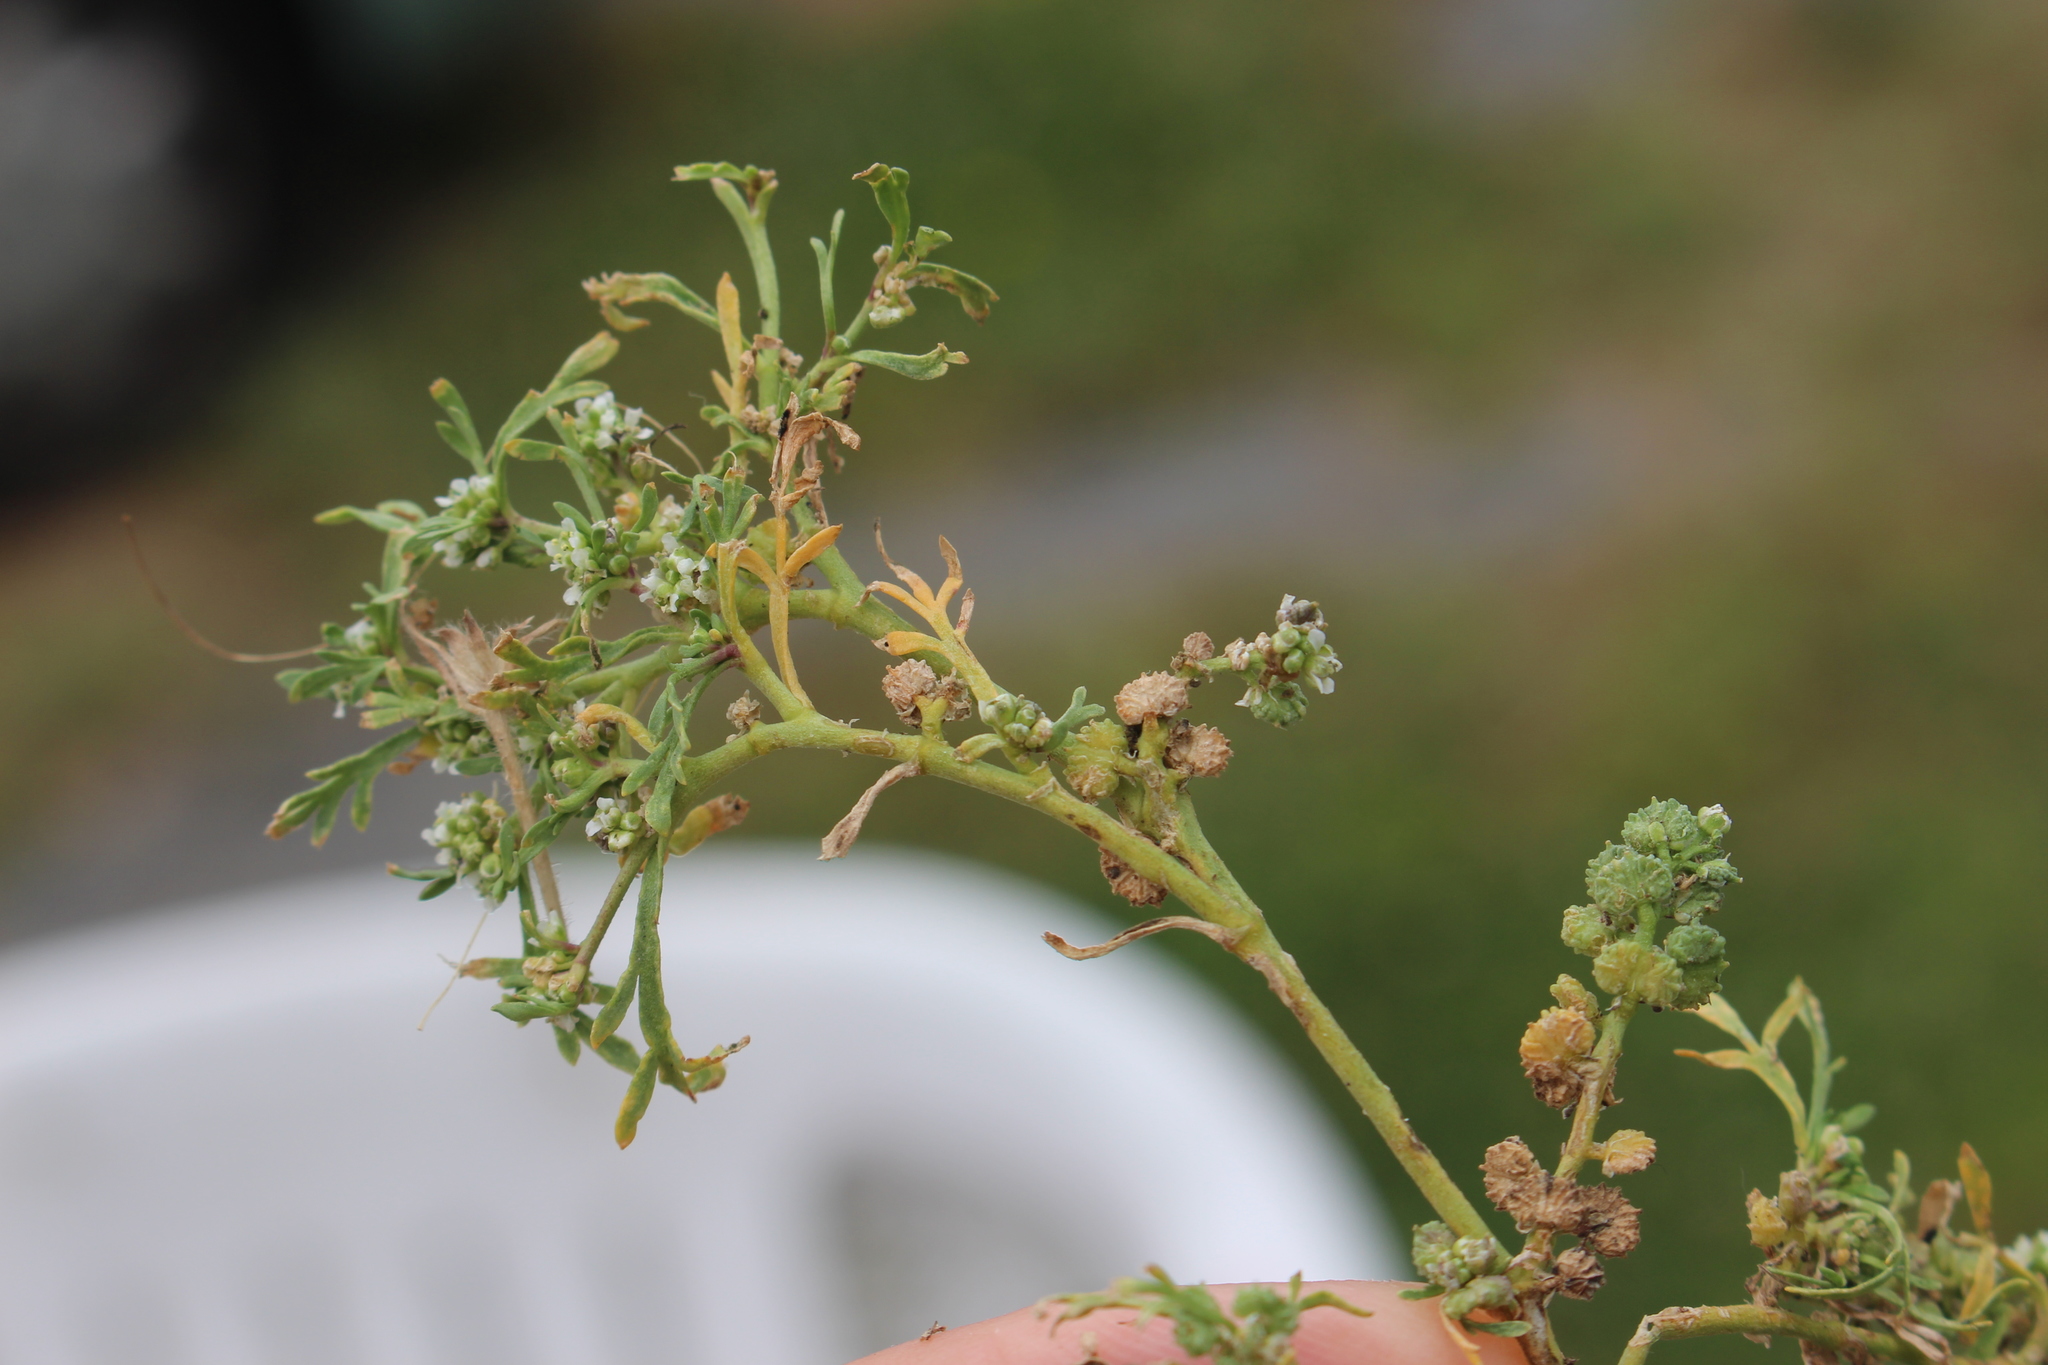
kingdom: Plantae
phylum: Tracheophyta
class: Magnoliopsida
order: Brassicales
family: Brassicaceae
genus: Lepidium
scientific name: Lepidium coronopus
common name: Greater swinecress
